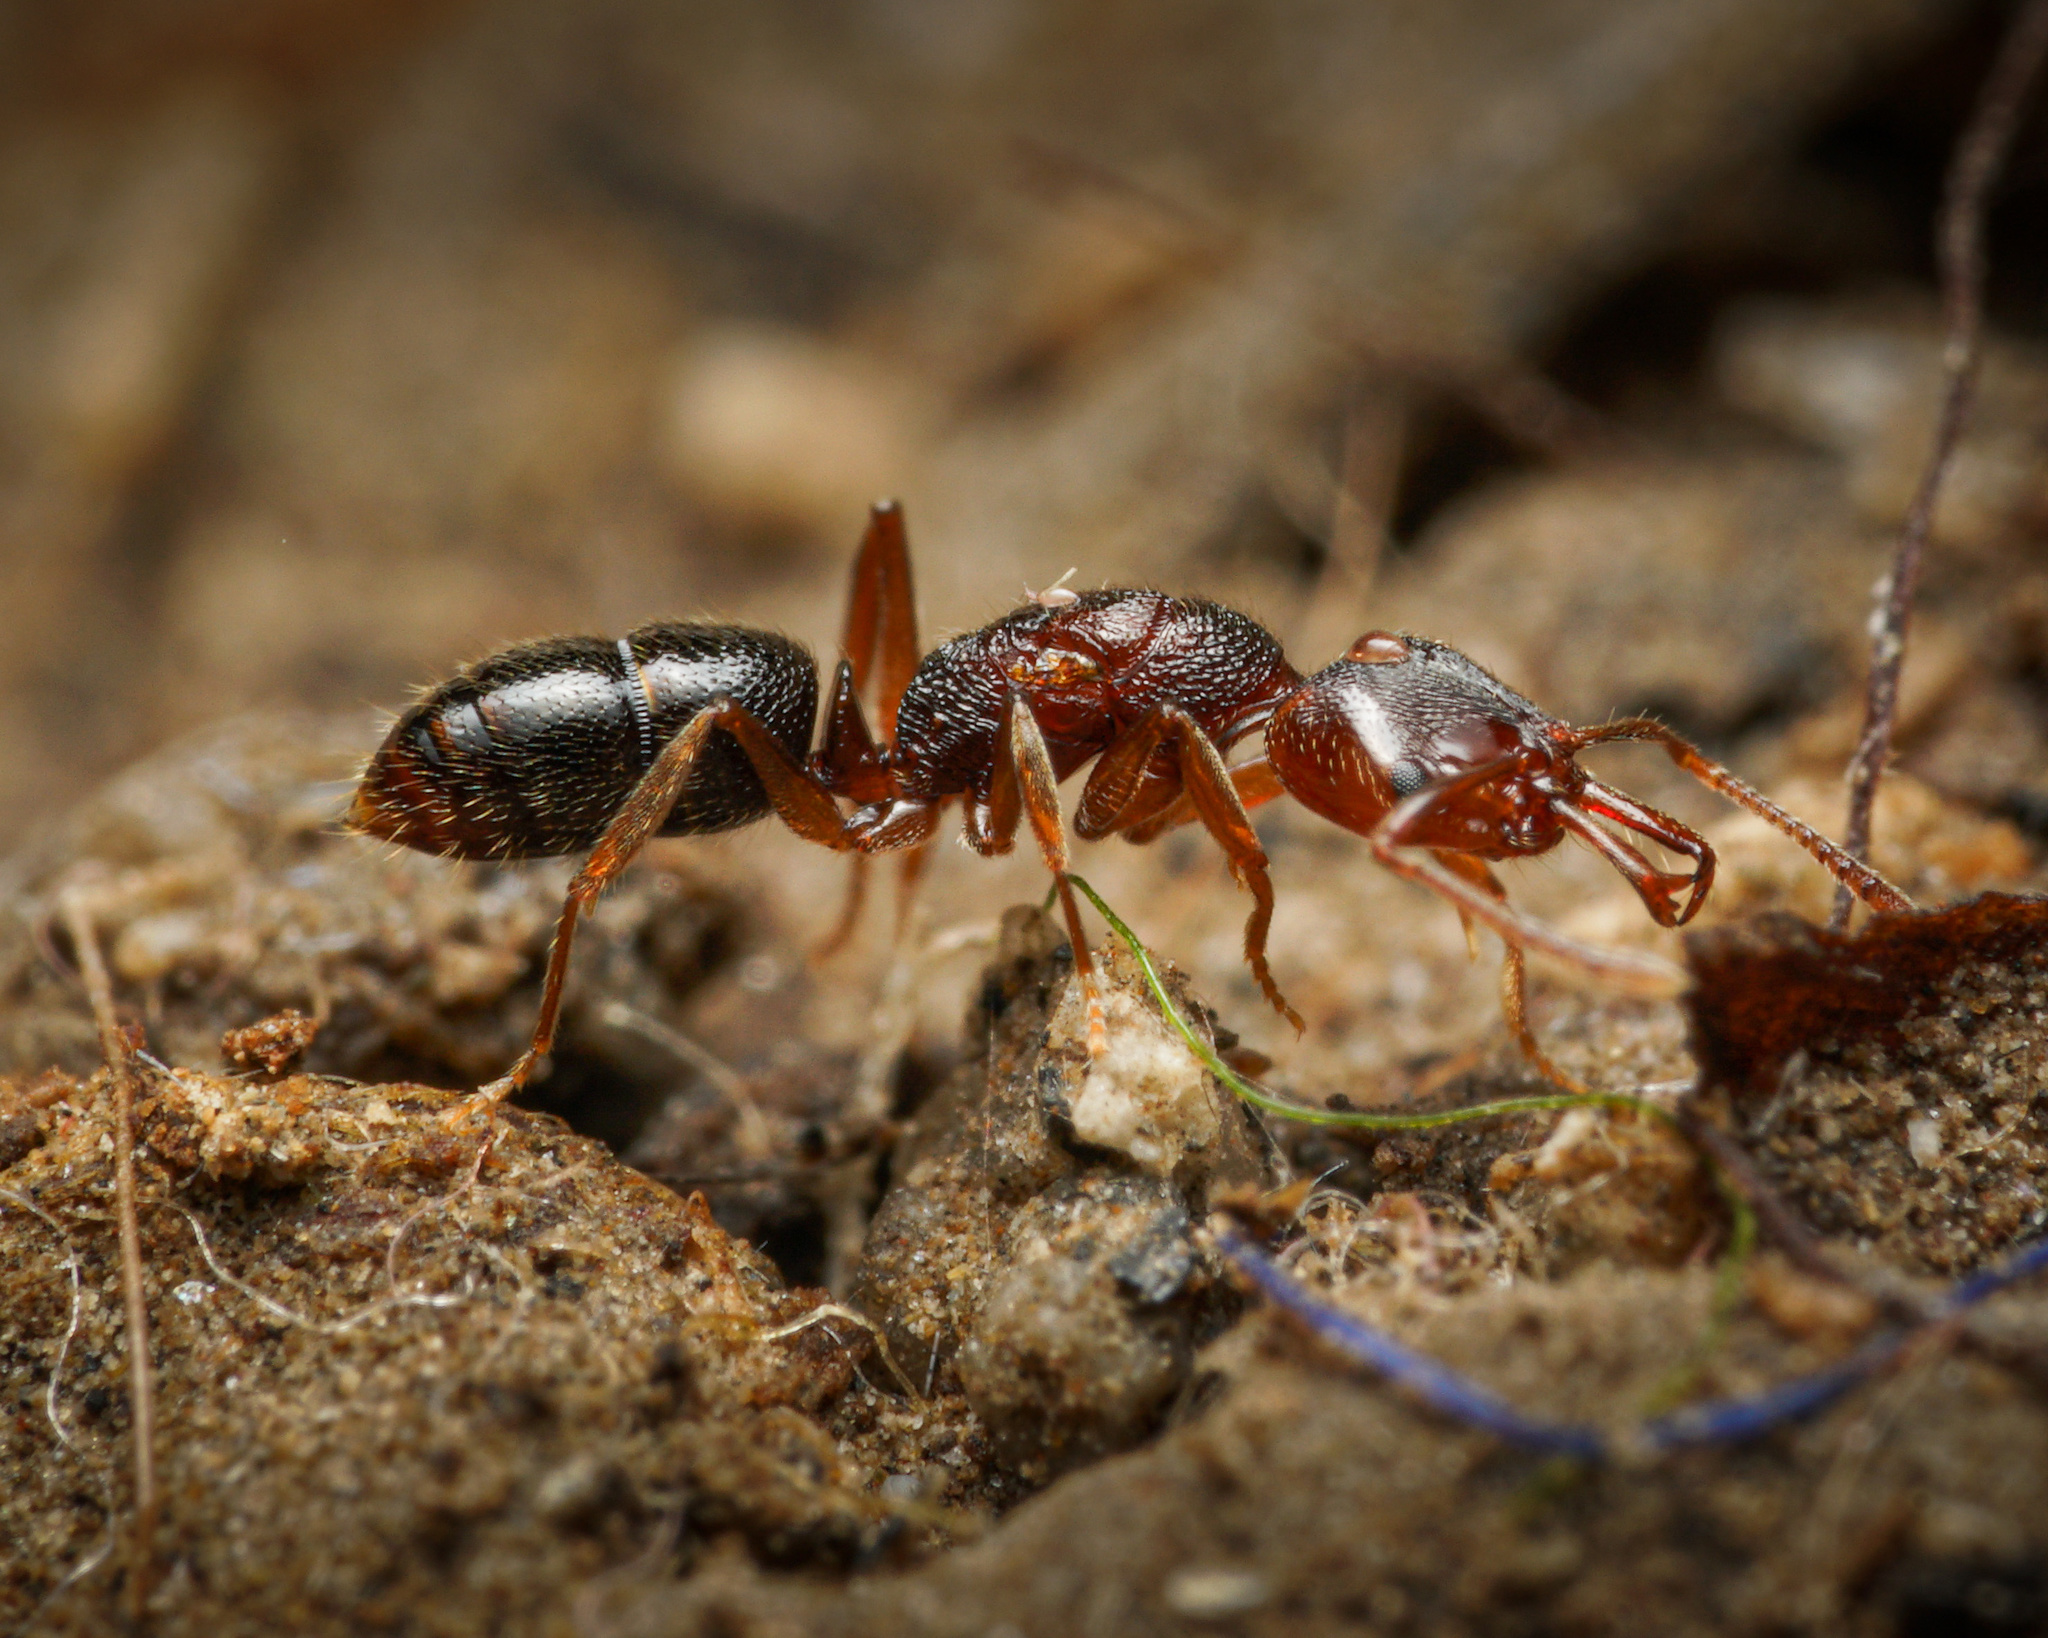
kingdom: Animalia
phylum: Arthropoda
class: Insecta
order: Hymenoptera
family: Formicidae
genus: Anochetus
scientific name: Anochetus graeffei
